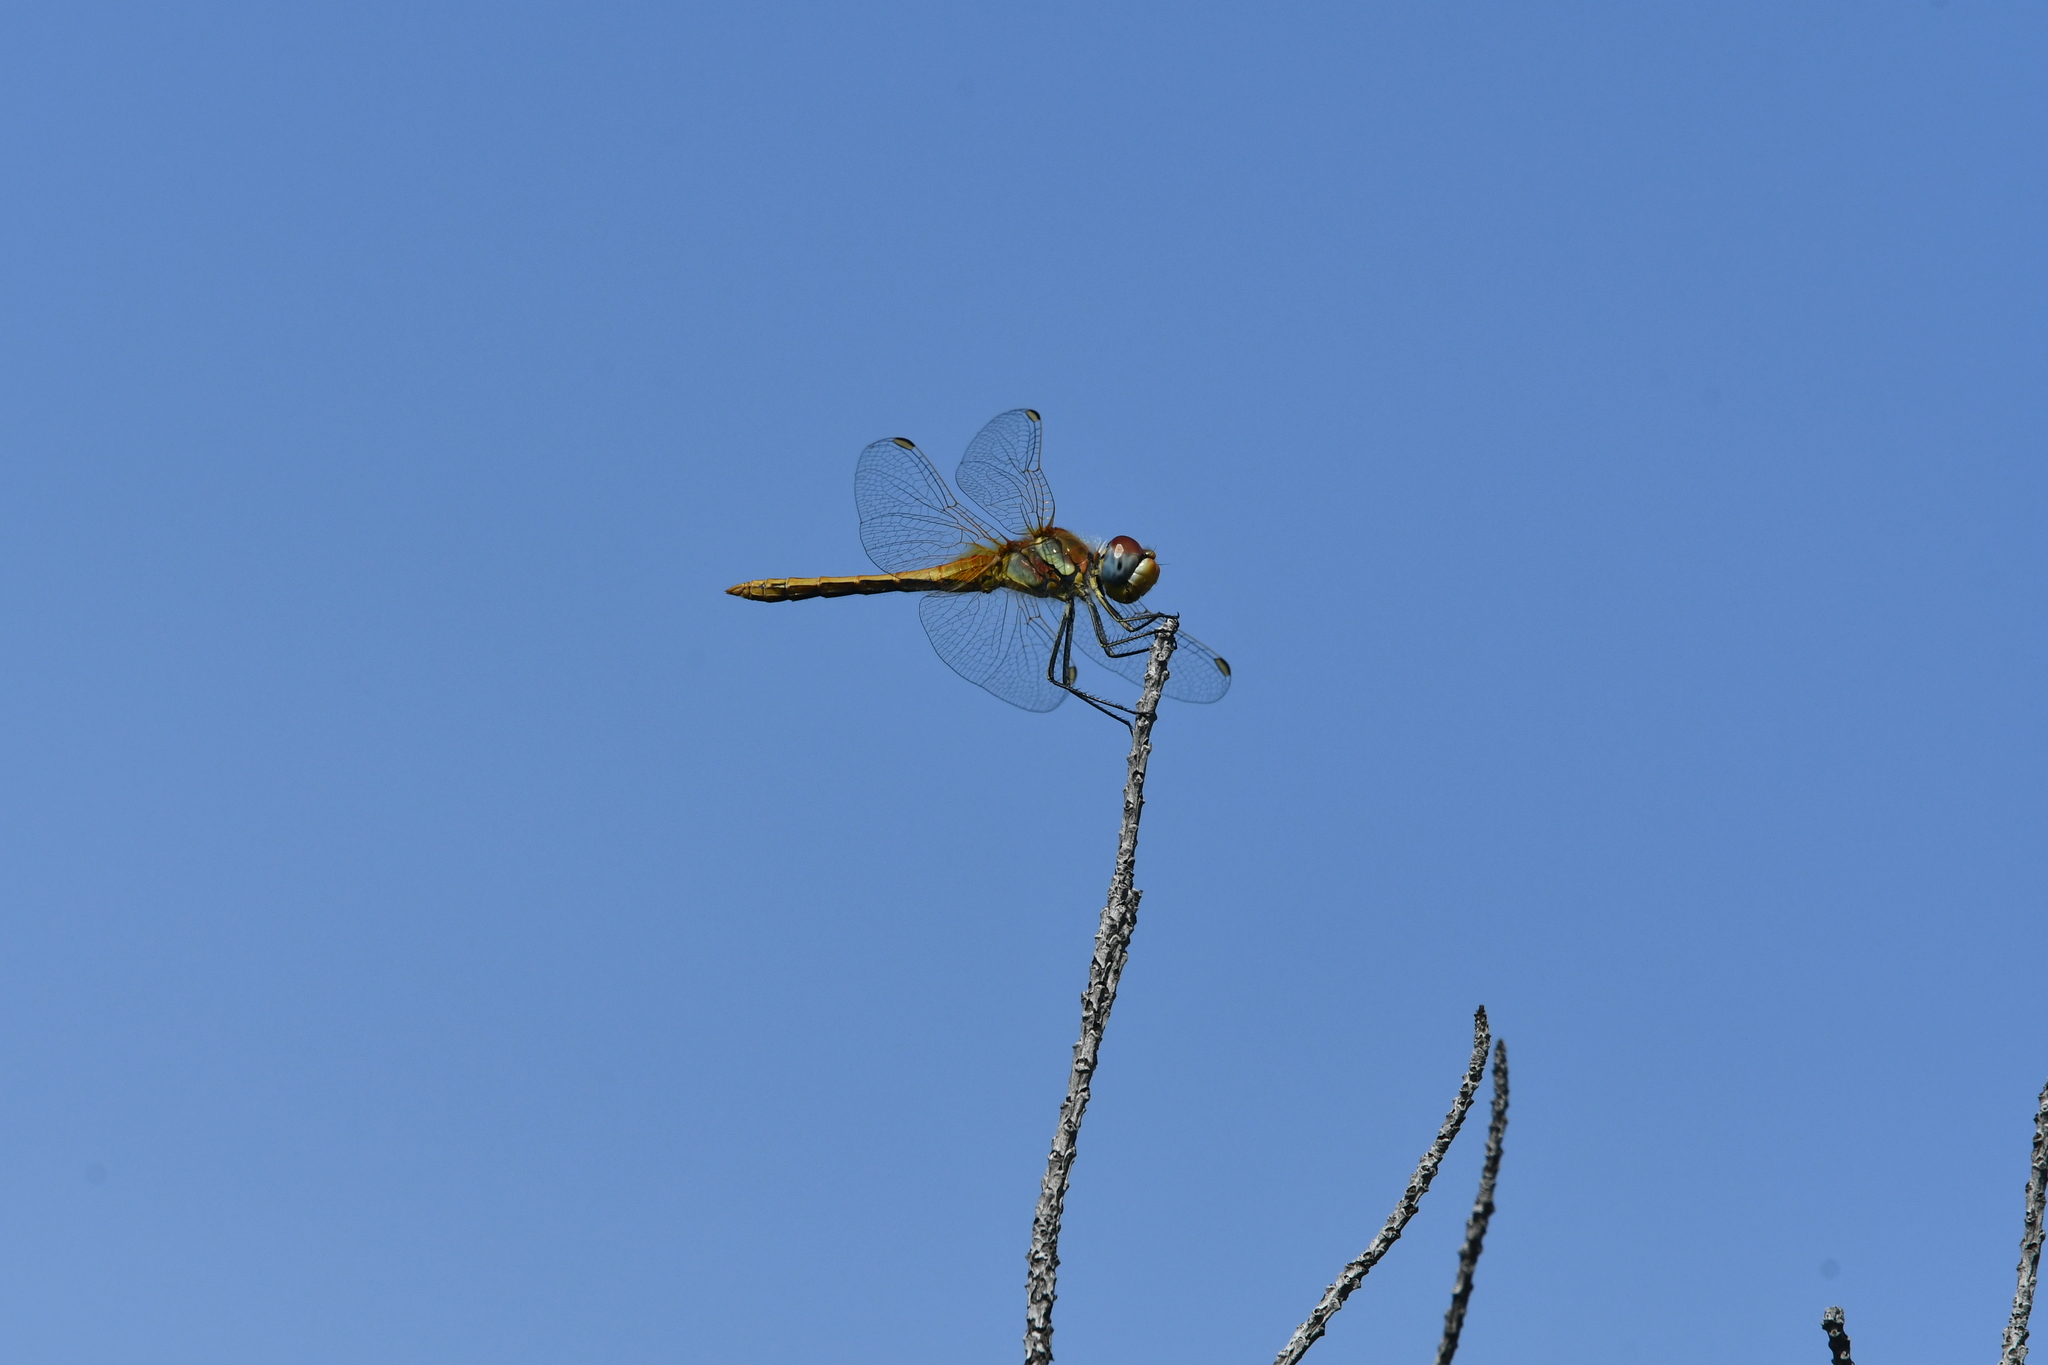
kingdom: Animalia
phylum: Arthropoda
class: Insecta
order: Odonata
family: Libellulidae
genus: Sympetrum
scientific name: Sympetrum fonscolombii
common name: Red-veined darter
